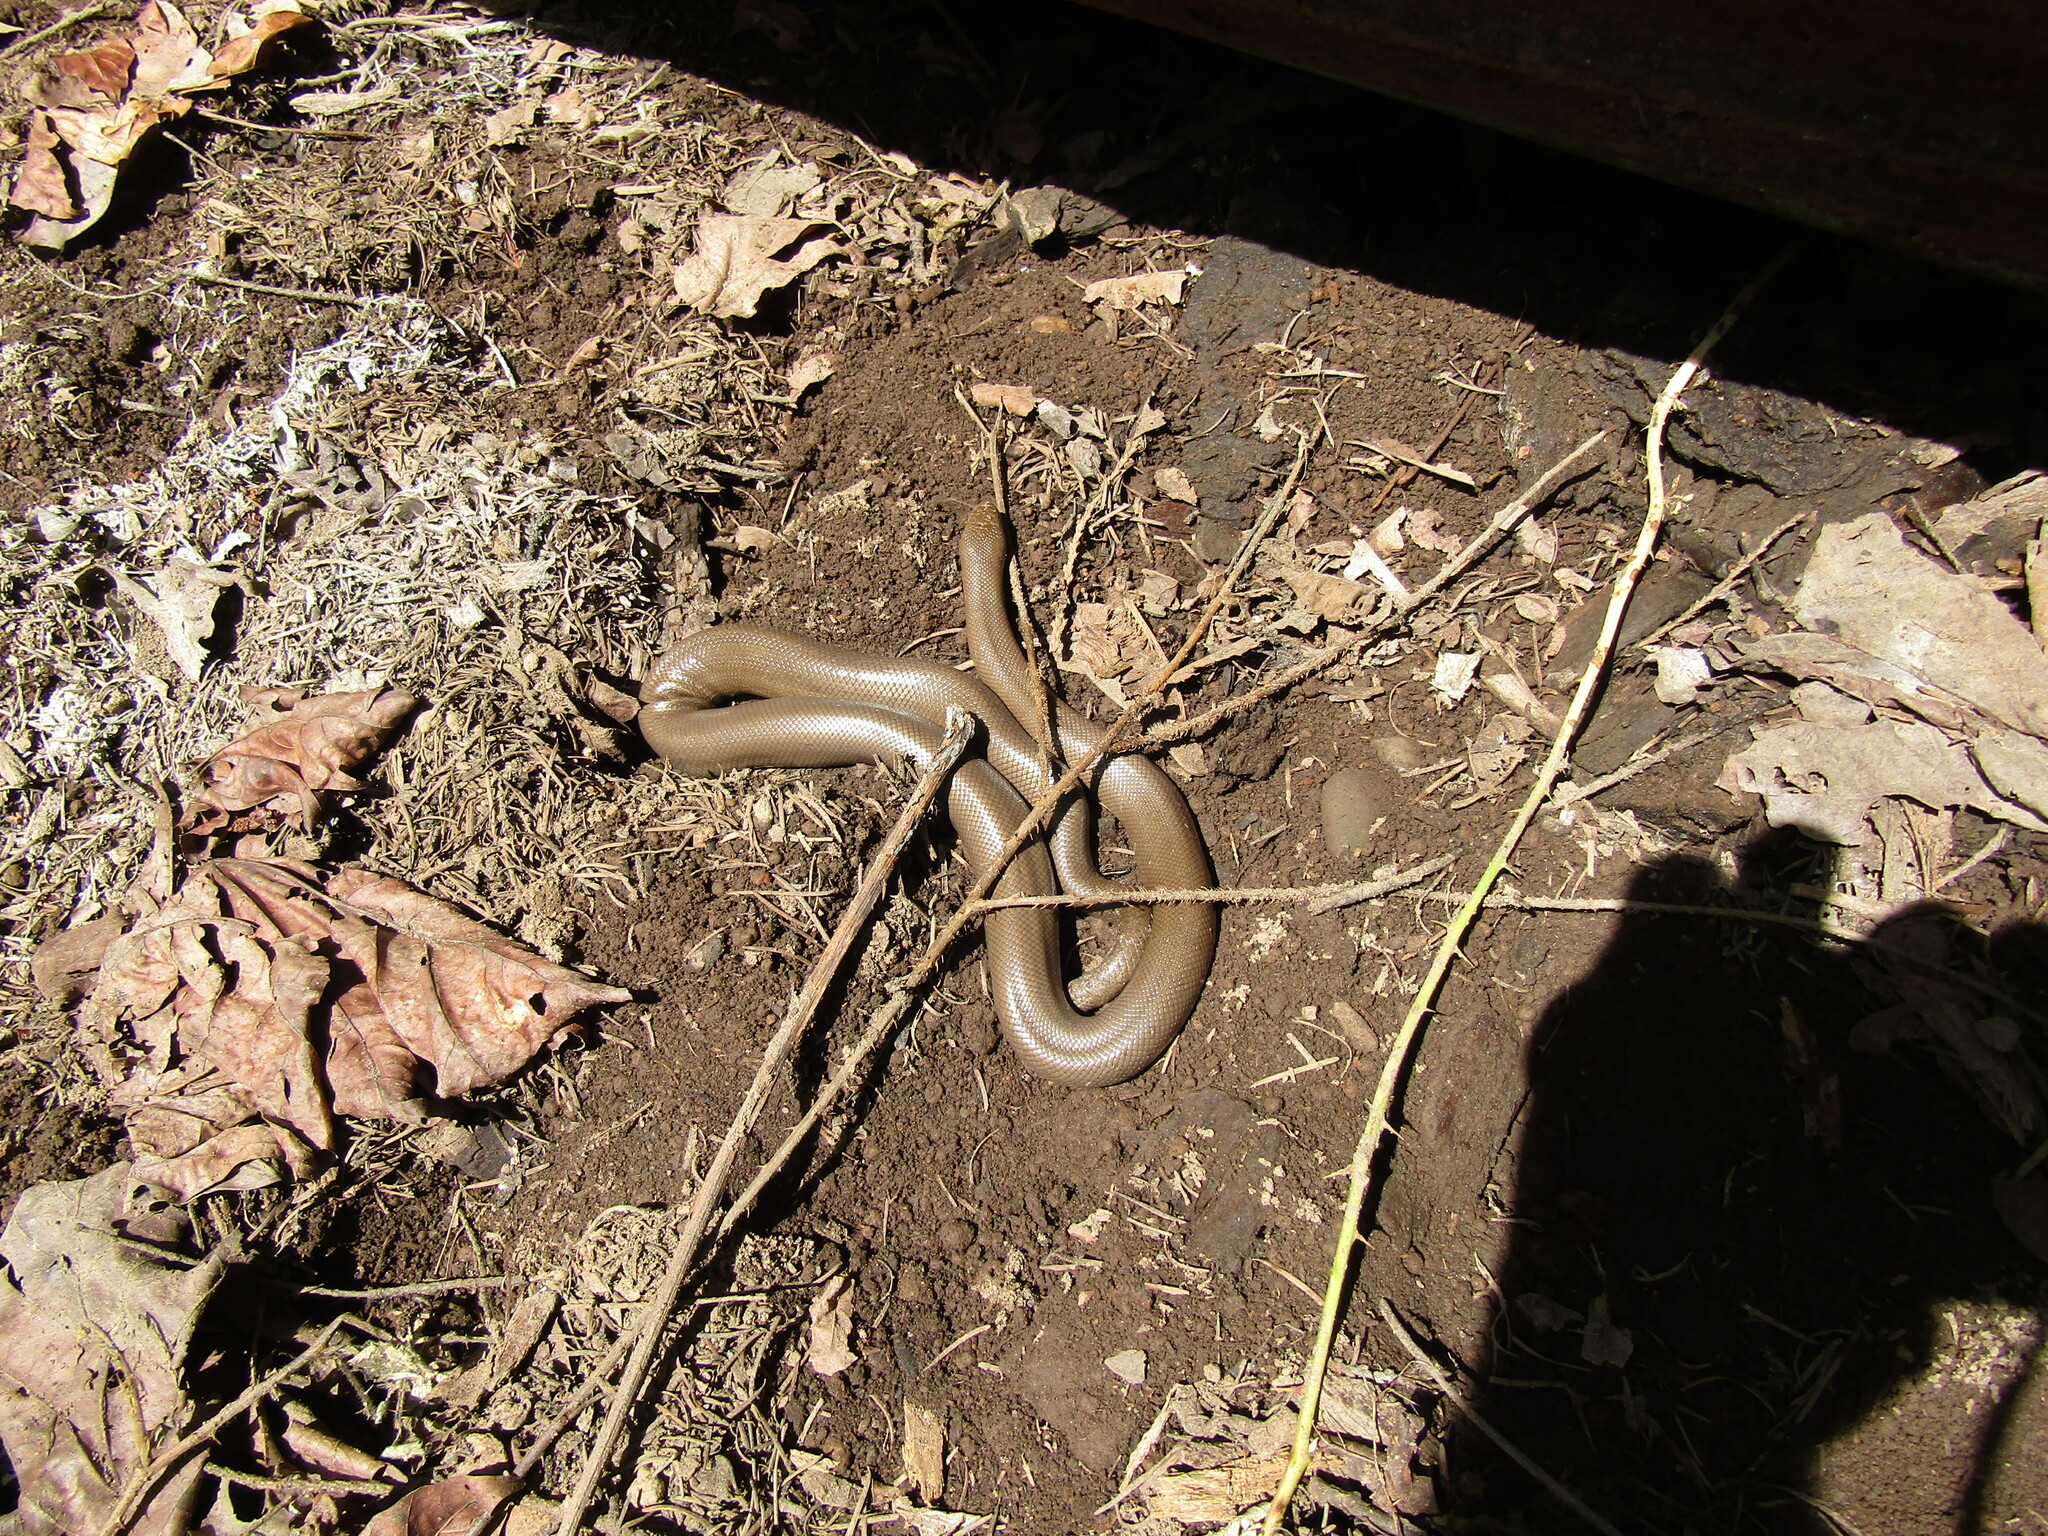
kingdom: Animalia
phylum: Chordata
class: Squamata
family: Boidae
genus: Charina
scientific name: Charina bottae
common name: Northern rubber boa
